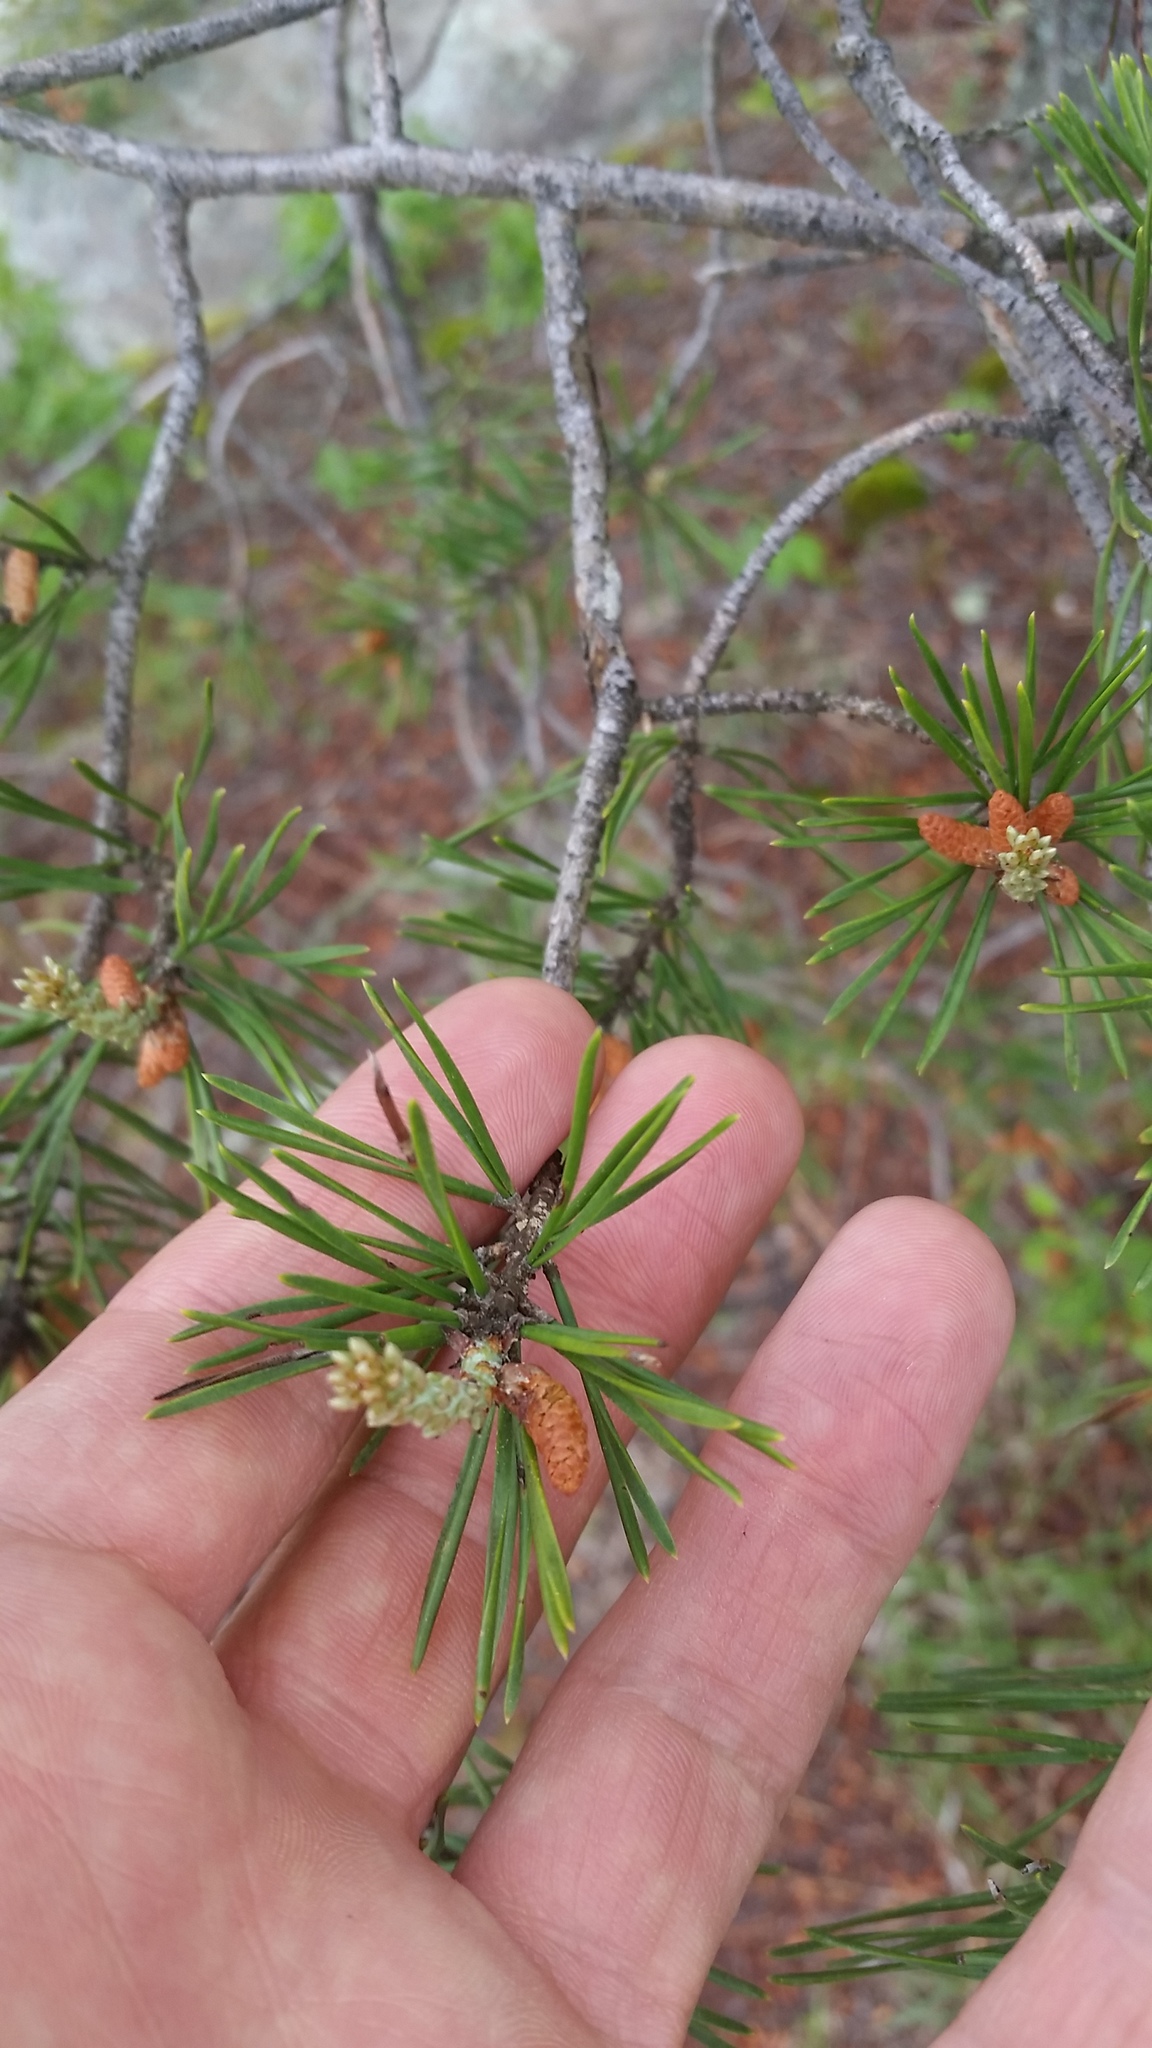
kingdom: Plantae
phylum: Tracheophyta
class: Pinopsida
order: Pinales
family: Pinaceae
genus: Pinus
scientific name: Pinus virginiana
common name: Scrub pine
